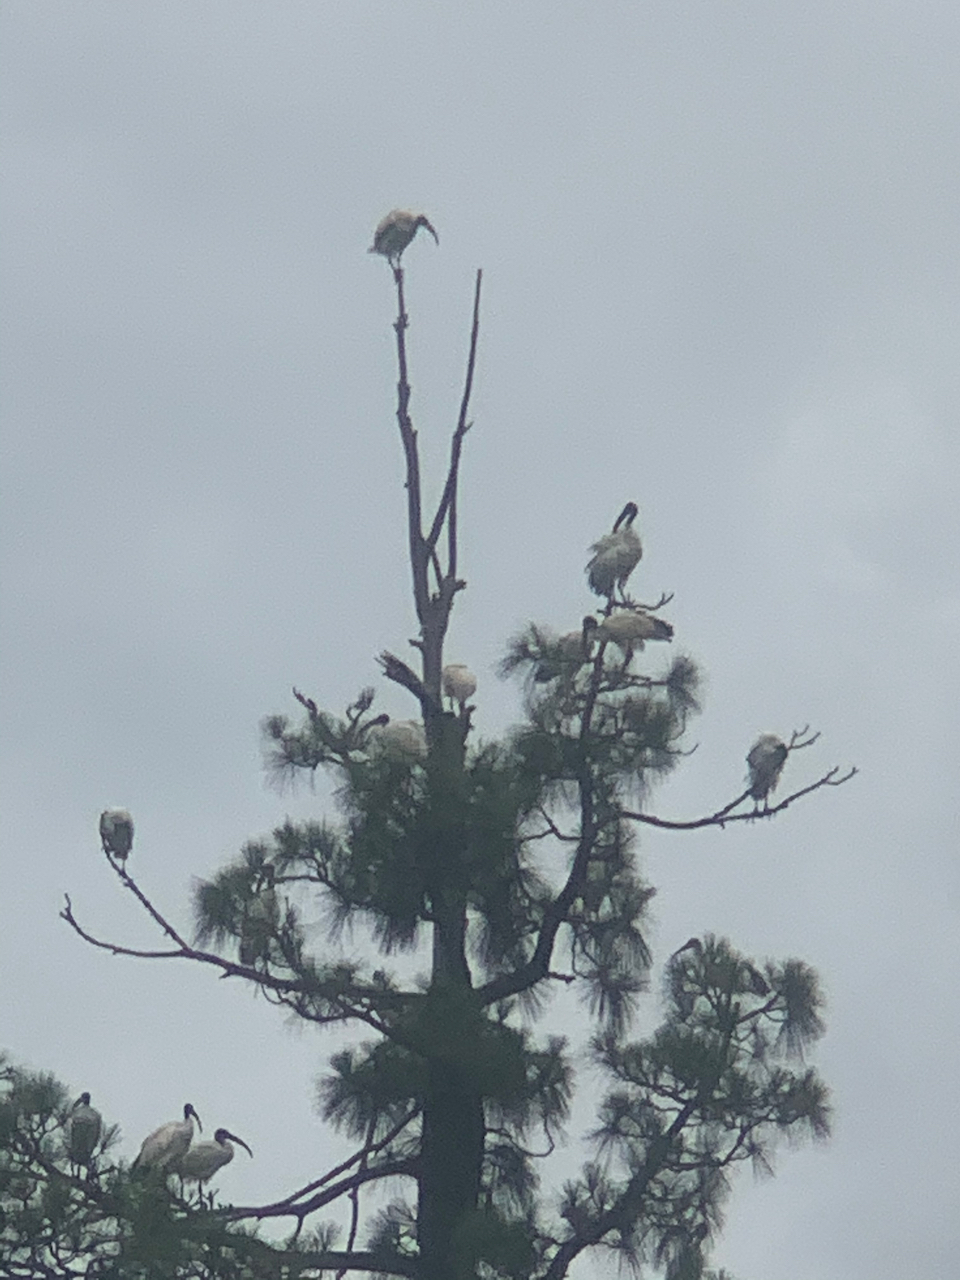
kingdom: Animalia
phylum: Chordata
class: Aves
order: Pelecaniformes
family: Threskiornithidae
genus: Threskiornis
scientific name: Threskiornis aethiopicus
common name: Sacred ibis
